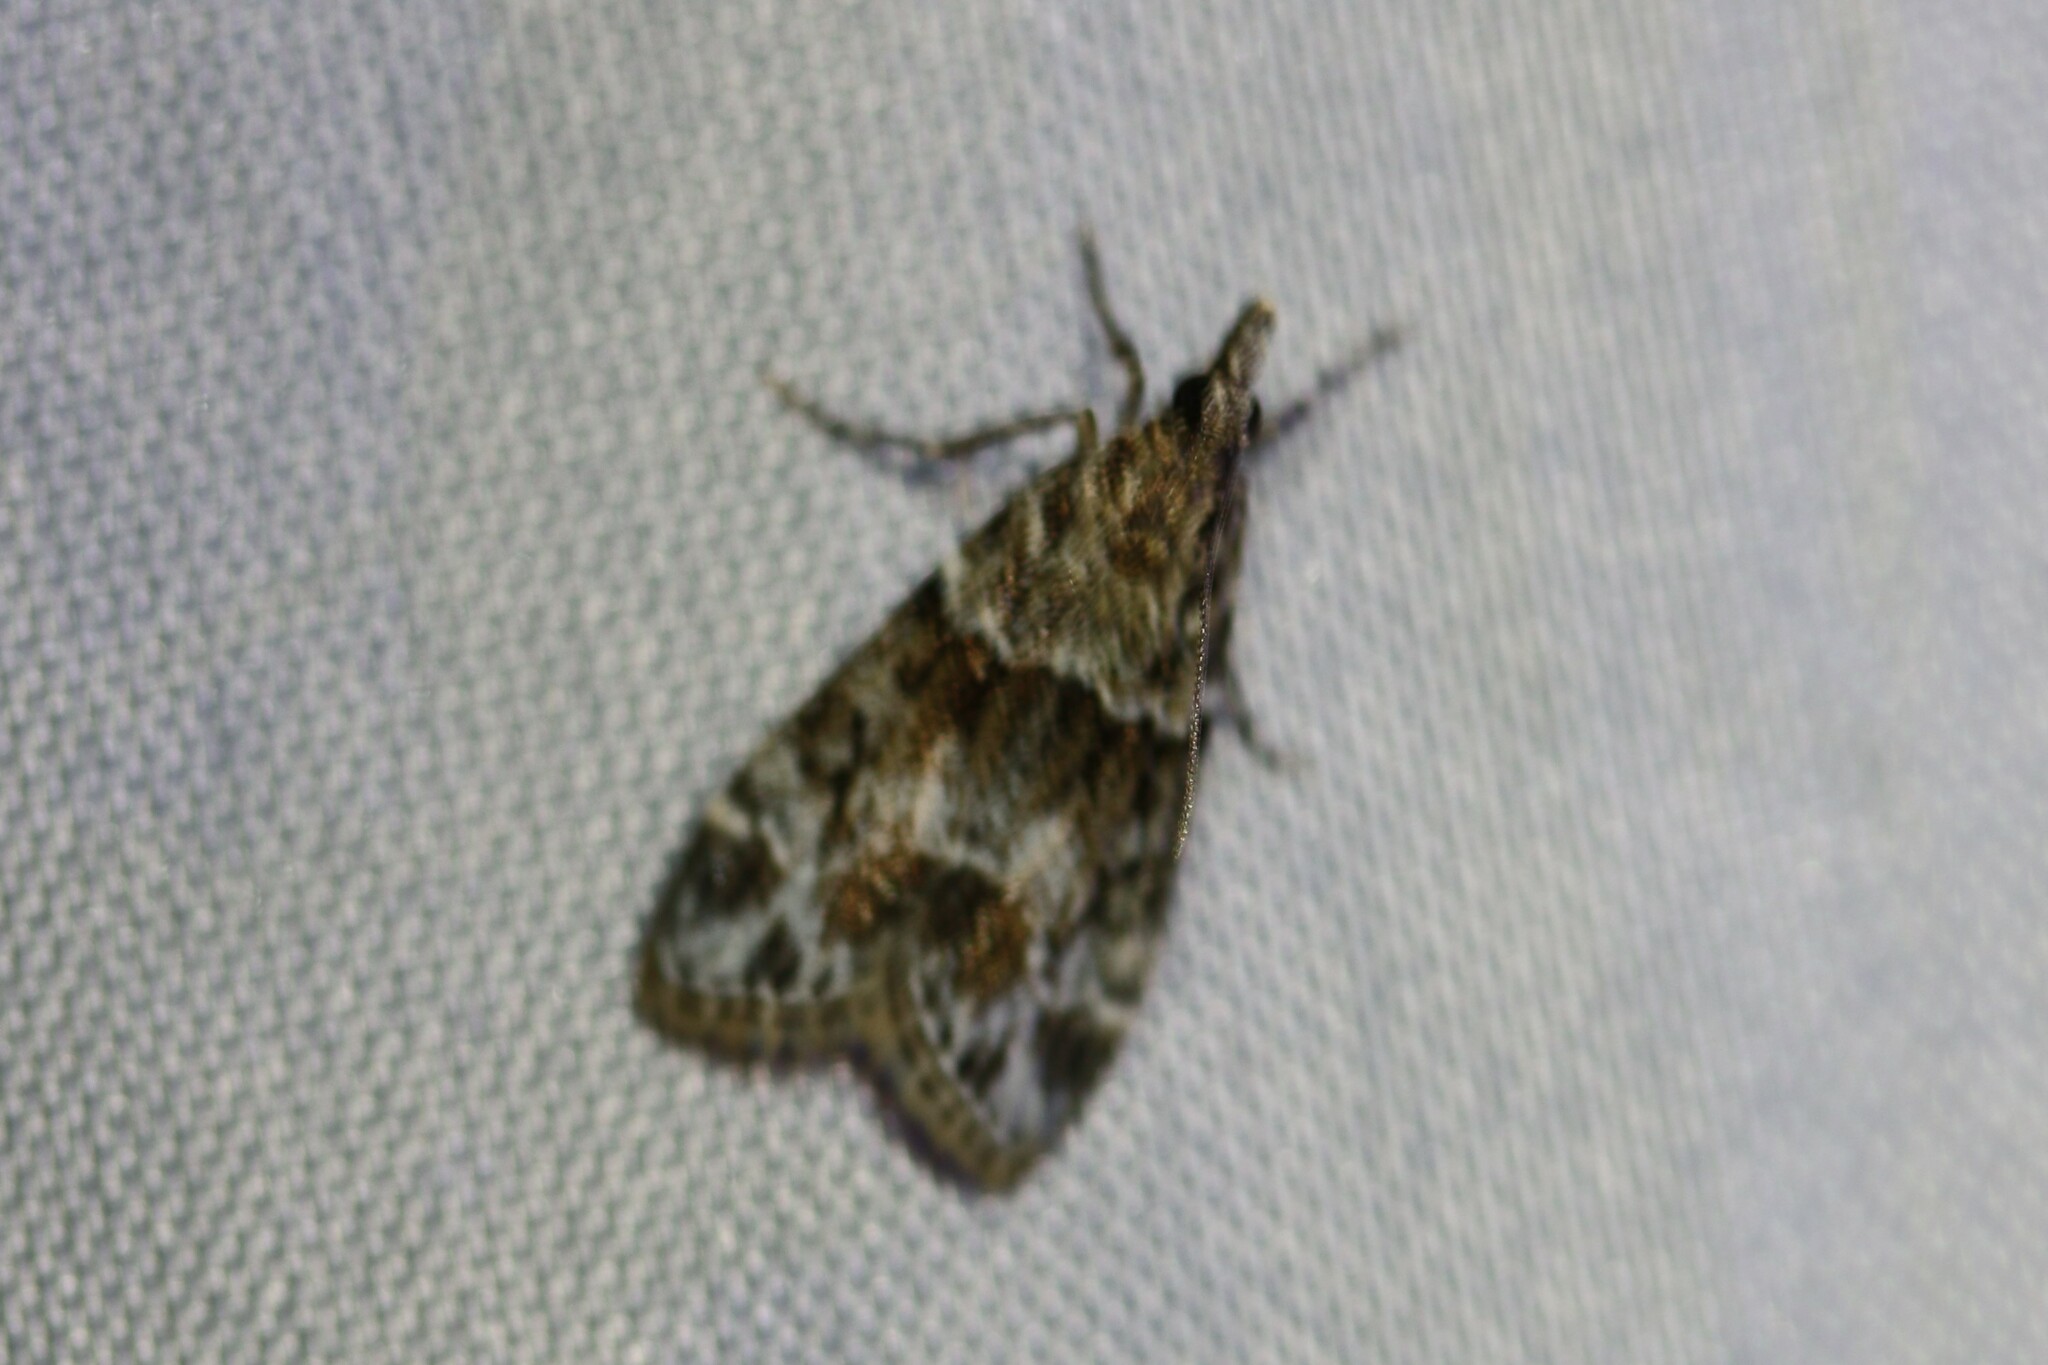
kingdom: Animalia
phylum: Arthropoda
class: Insecta
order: Lepidoptera
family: Crambidae
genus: Eudonia
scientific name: Eudonia mercurella
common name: Small grey
